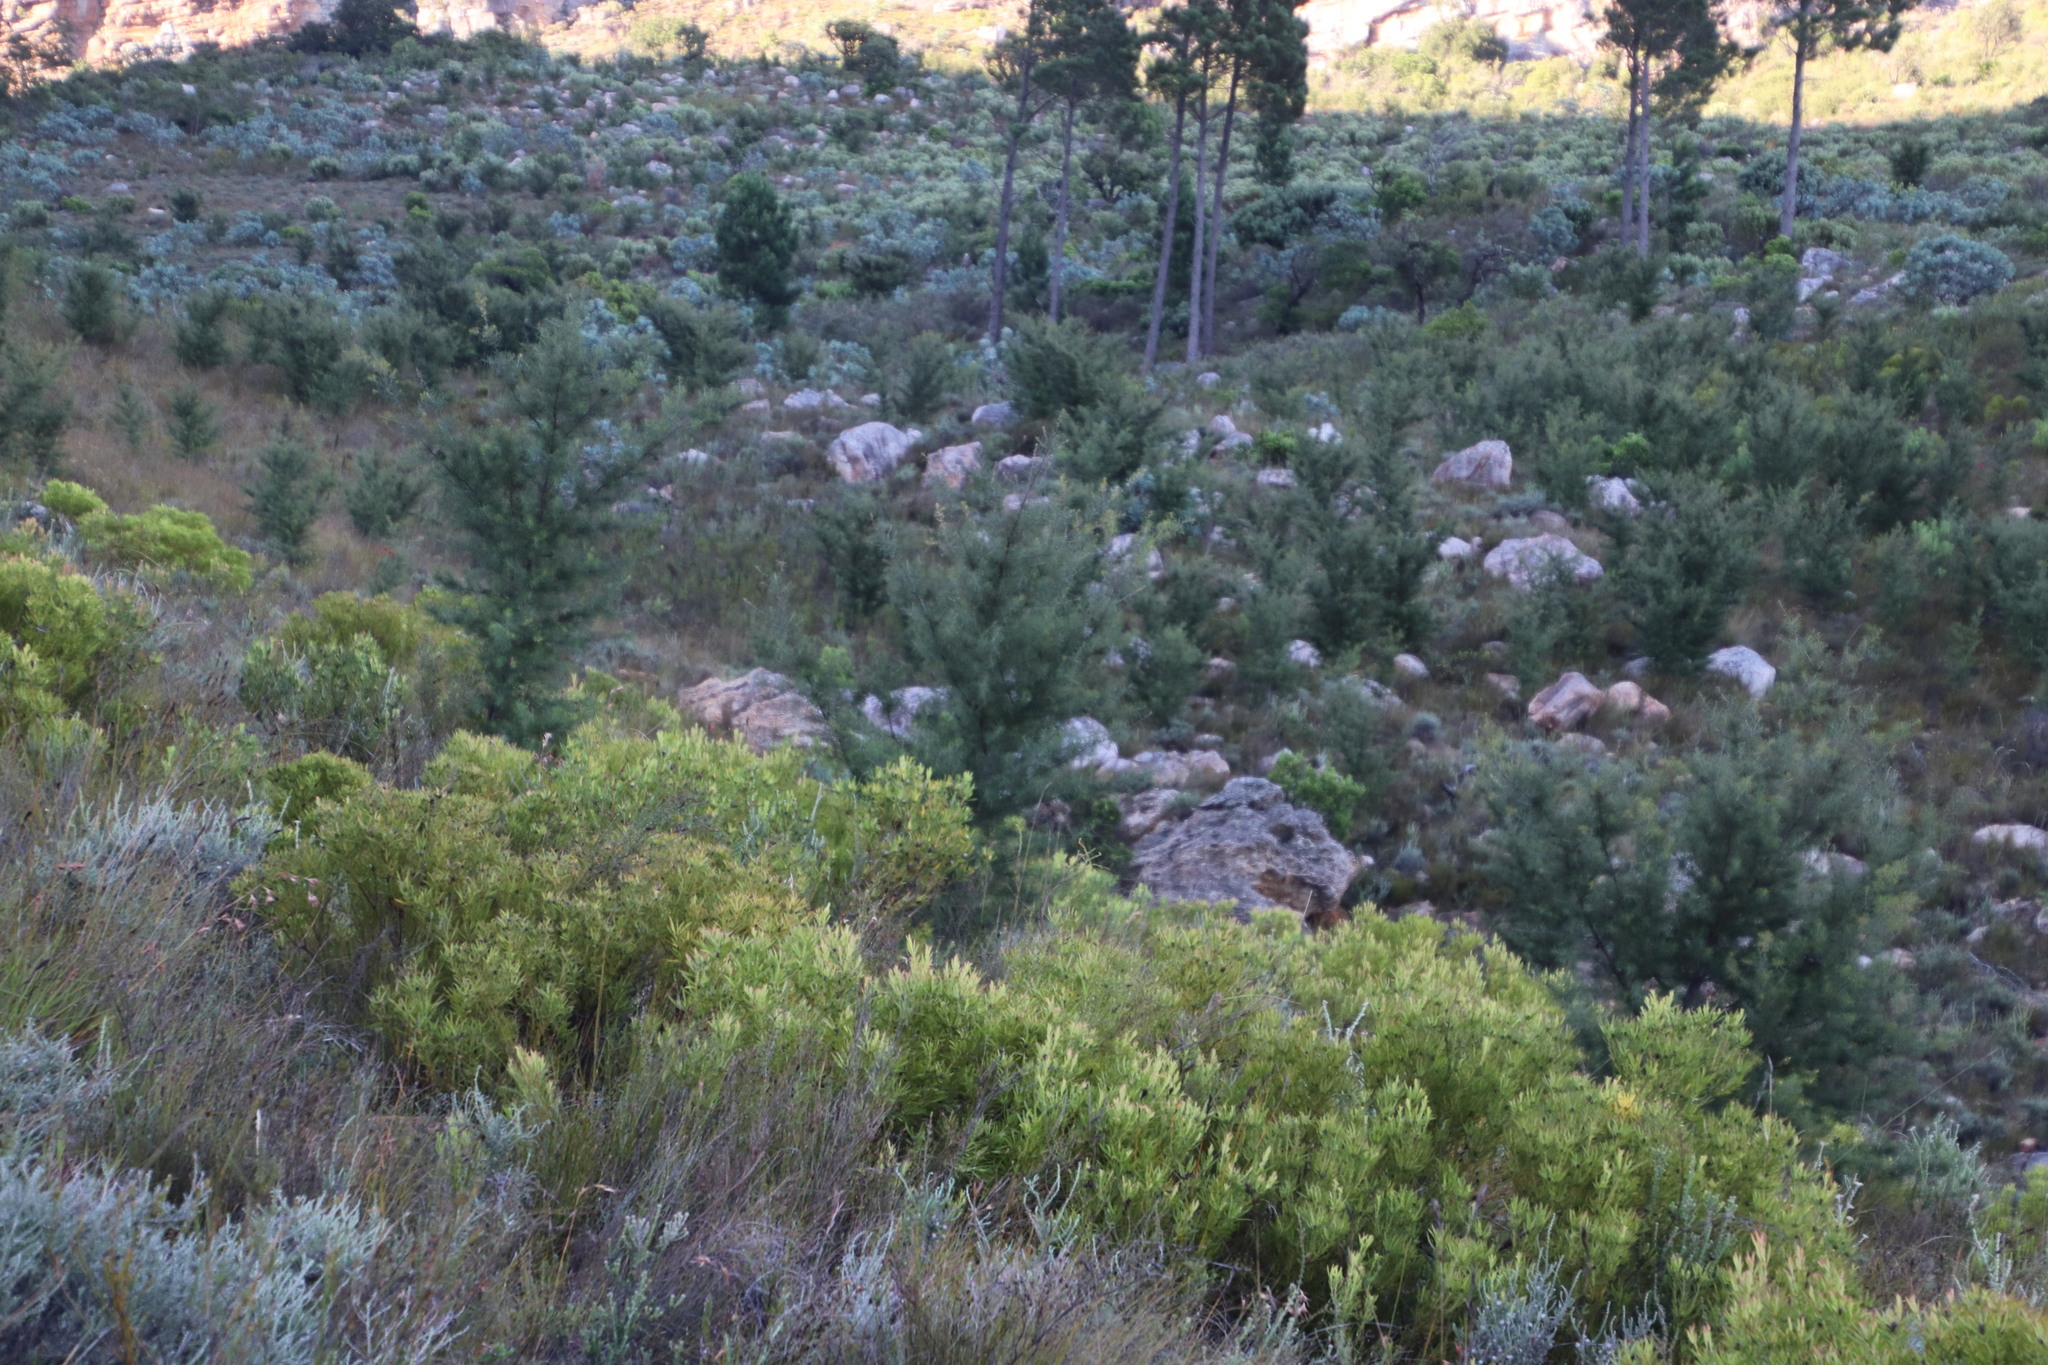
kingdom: Plantae
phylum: Tracheophyta
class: Magnoliopsida
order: Proteales
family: Proteaceae
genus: Hakea
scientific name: Hakea sericea
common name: Needle bush
